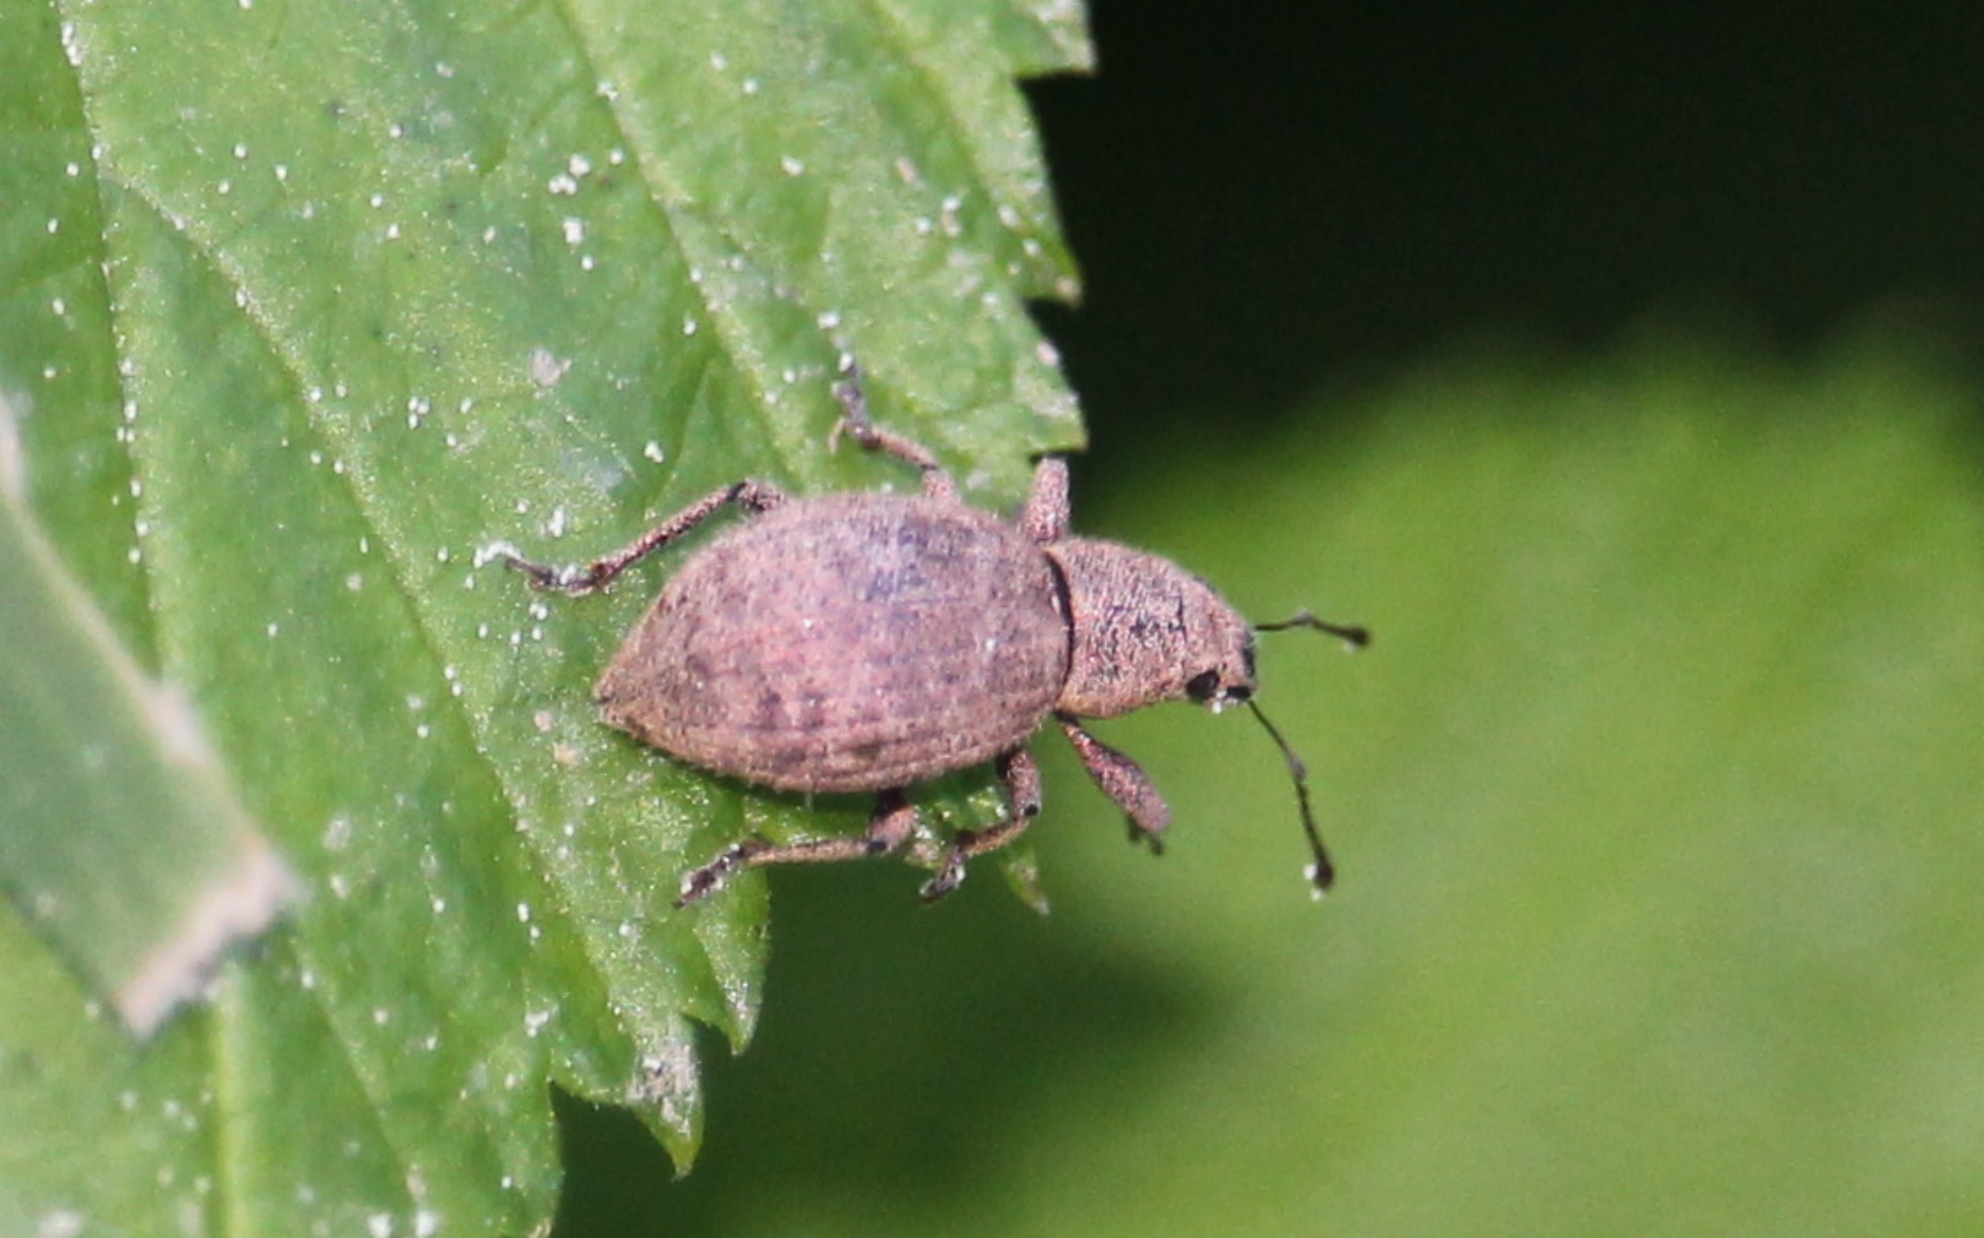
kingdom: Animalia
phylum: Arthropoda
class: Insecta
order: Coleoptera
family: Curculionidae
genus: Sciaphilus
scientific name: Sciaphilus asperatus
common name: Weevil
